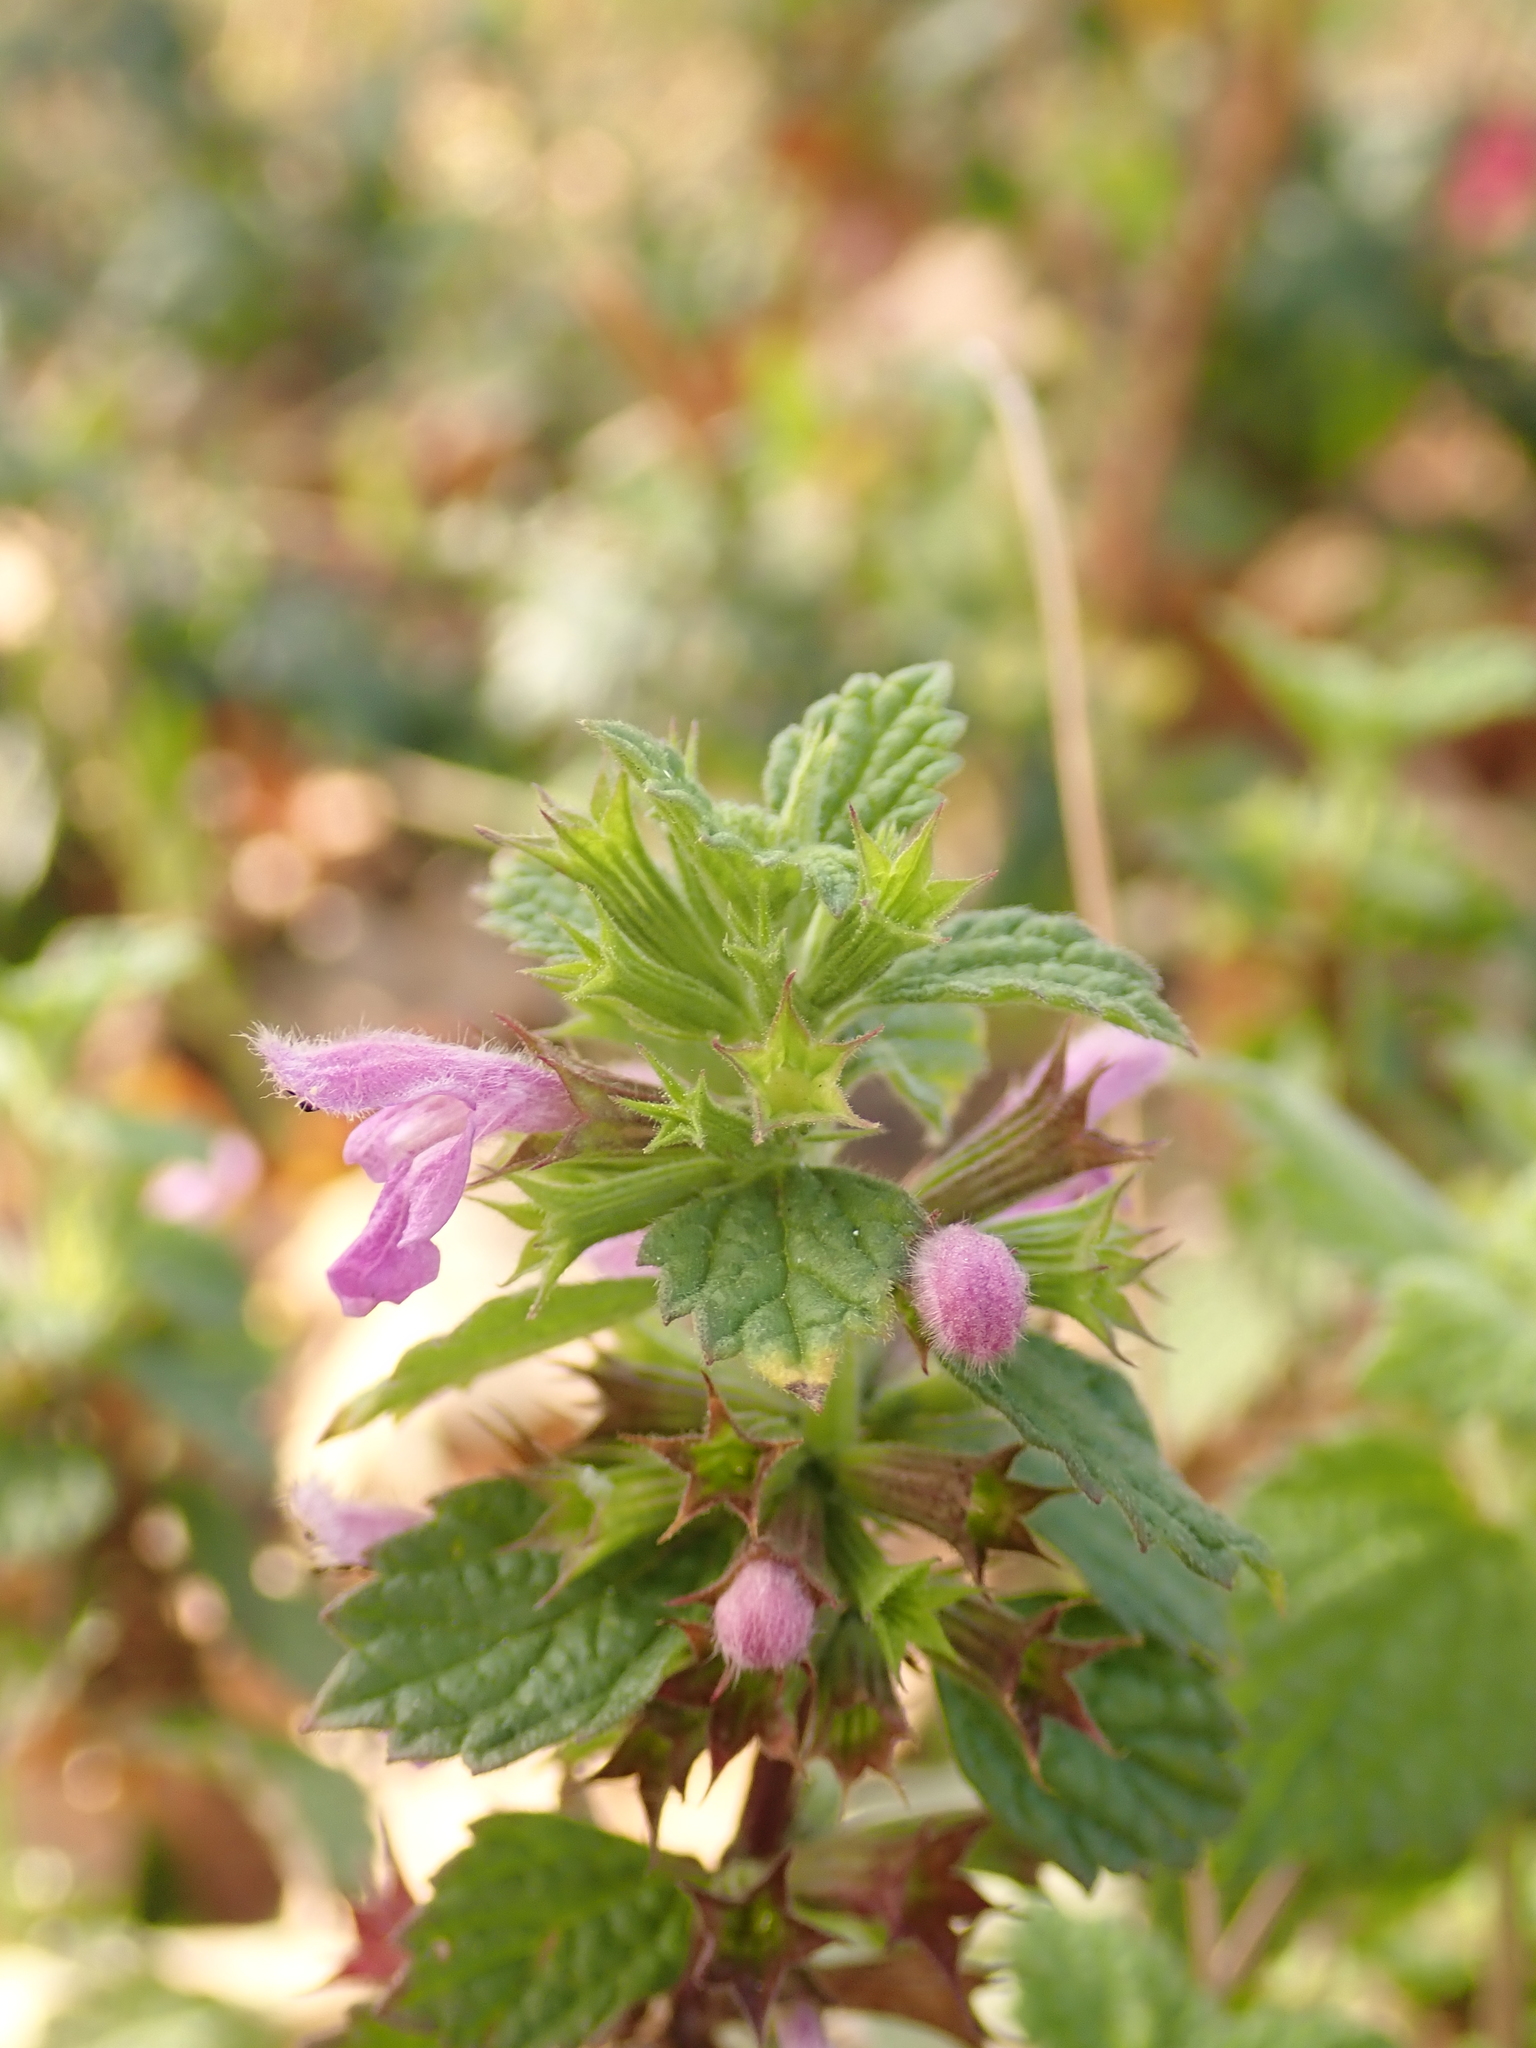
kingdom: Plantae
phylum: Tracheophyta
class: Magnoliopsida
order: Lamiales
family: Lamiaceae
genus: Ballota
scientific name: Ballota nigra
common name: Black horehound
